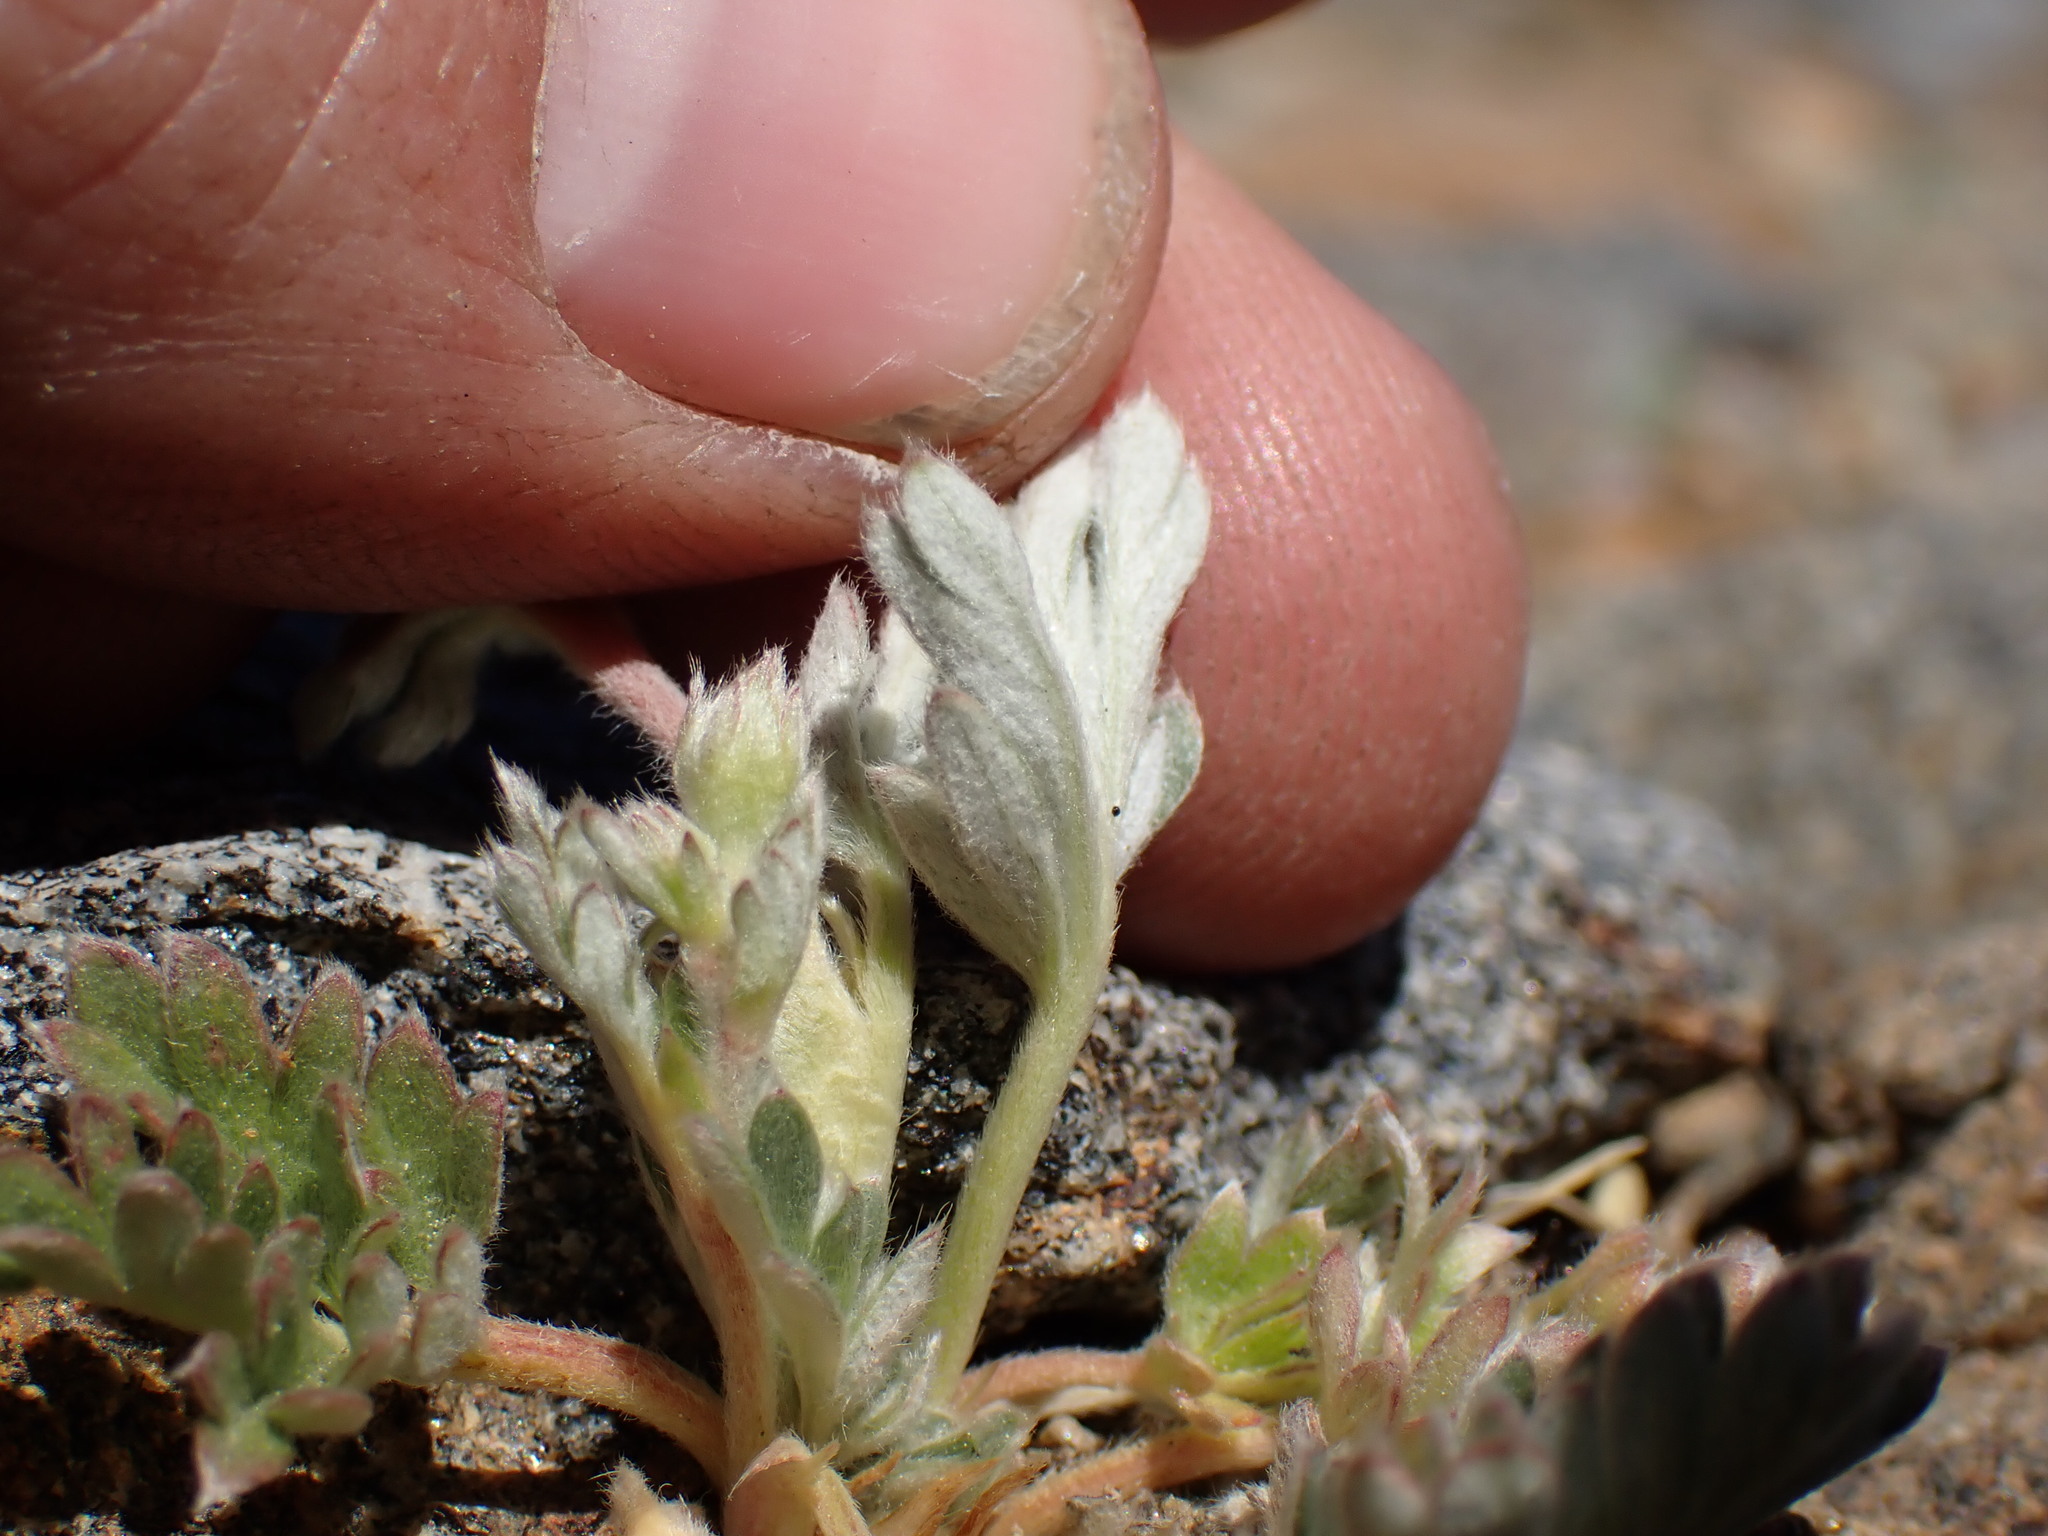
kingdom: Plantae
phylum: Tracheophyta
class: Magnoliopsida
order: Rosales
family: Rosaceae
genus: Potentilla
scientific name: Potentilla pseudosericea
